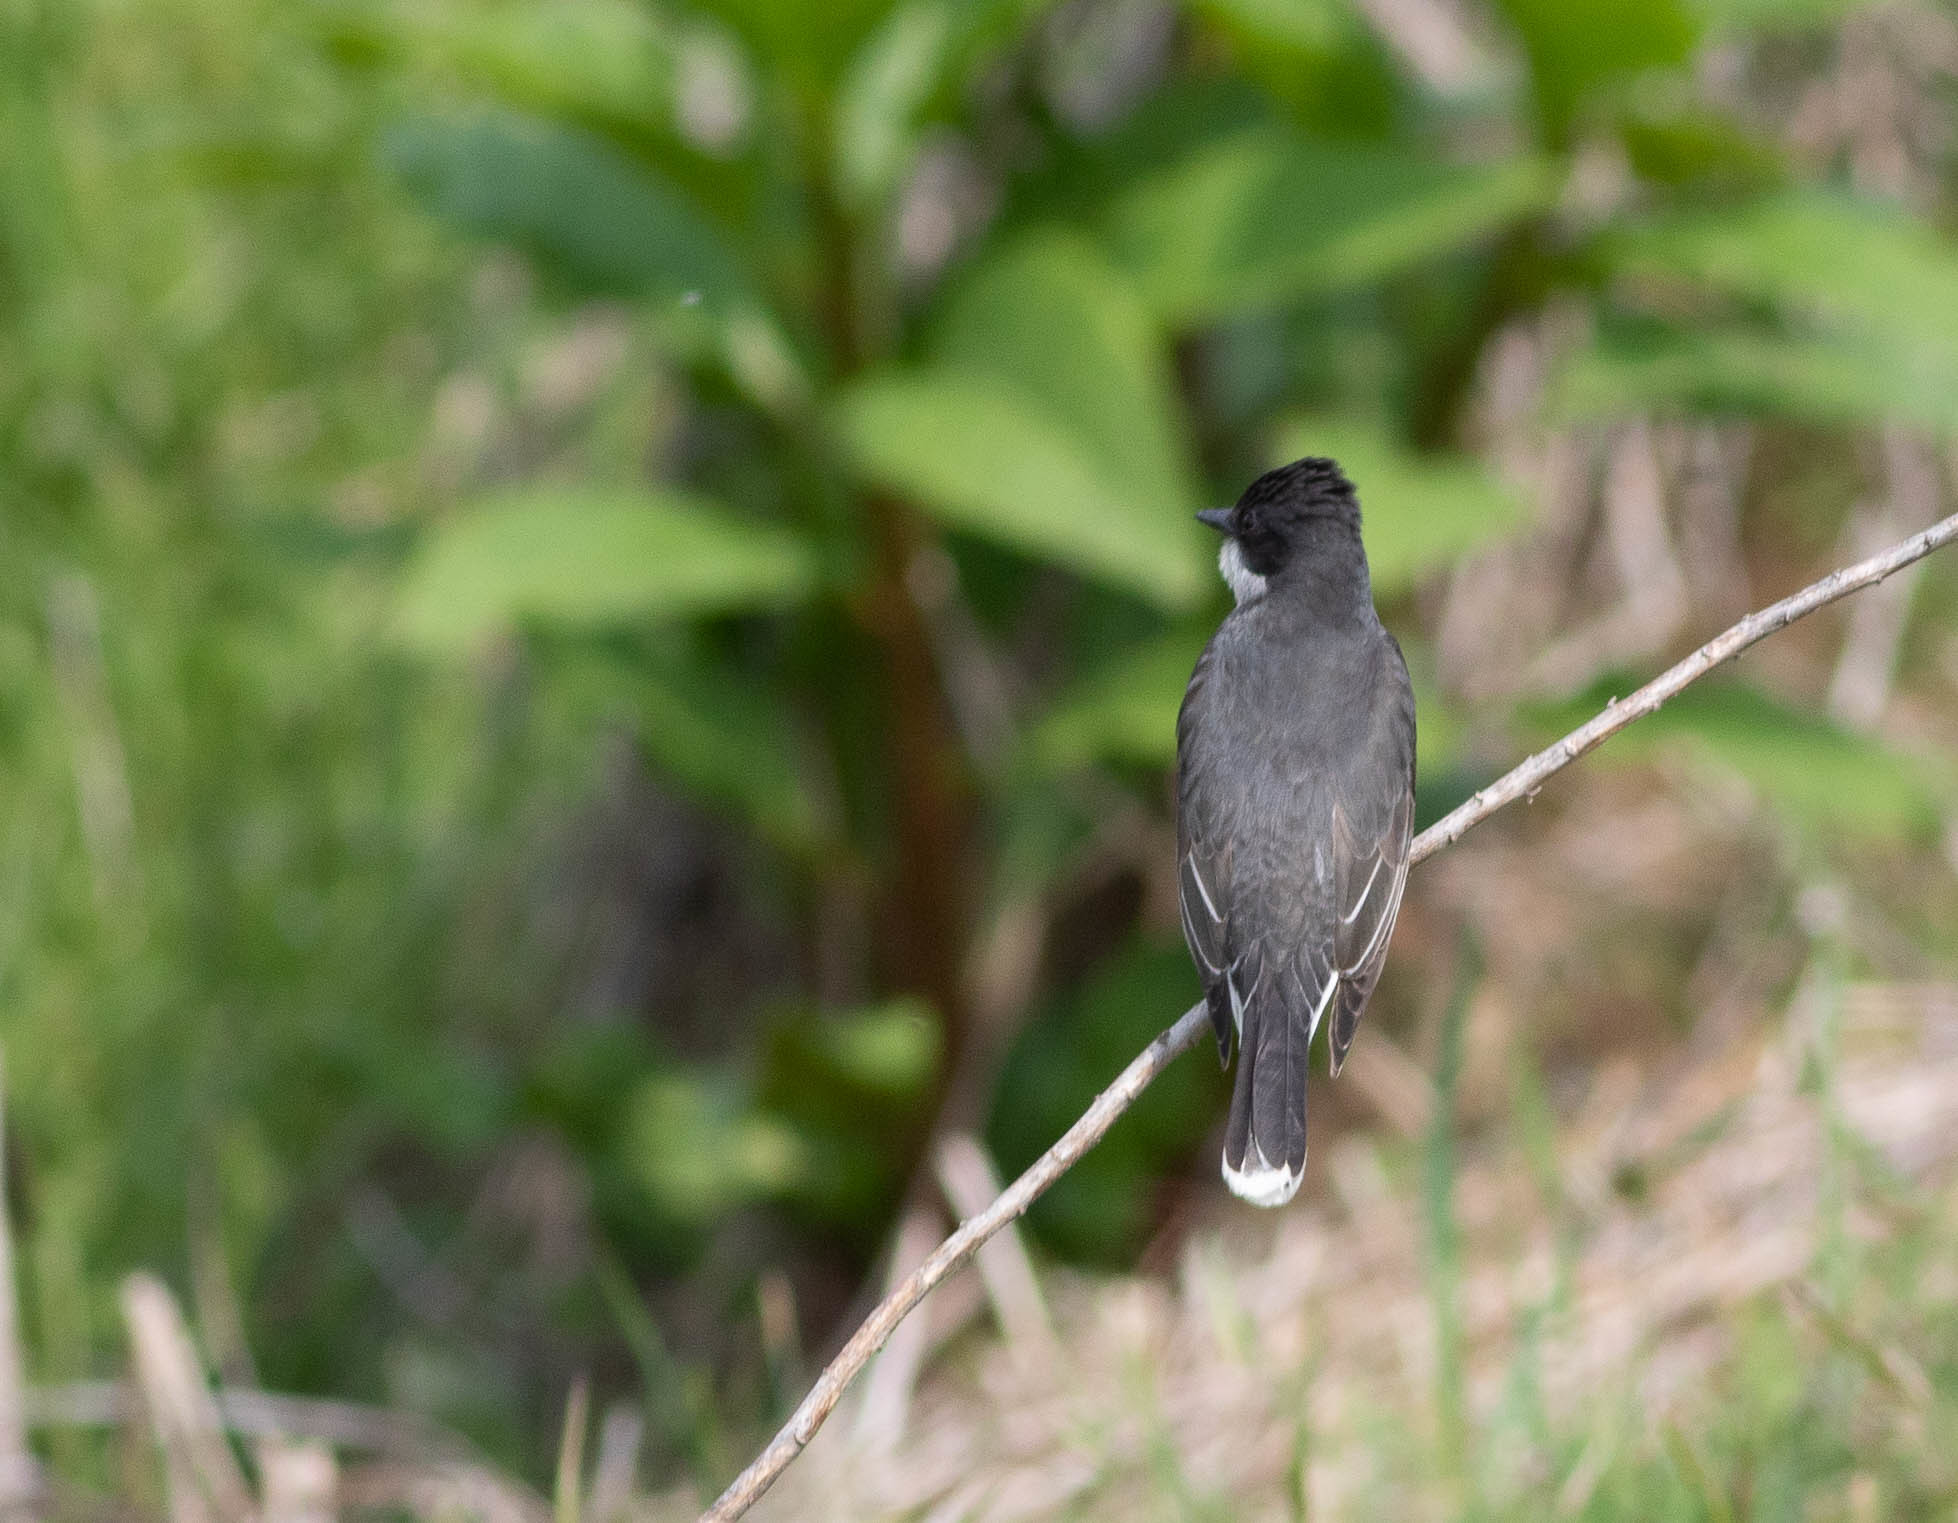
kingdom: Animalia
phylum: Chordata
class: Aves
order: Passeriformes
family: Tyrannidae
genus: Tyrannus
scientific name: Tyrannus tyrannus
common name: Eastern kingbird
